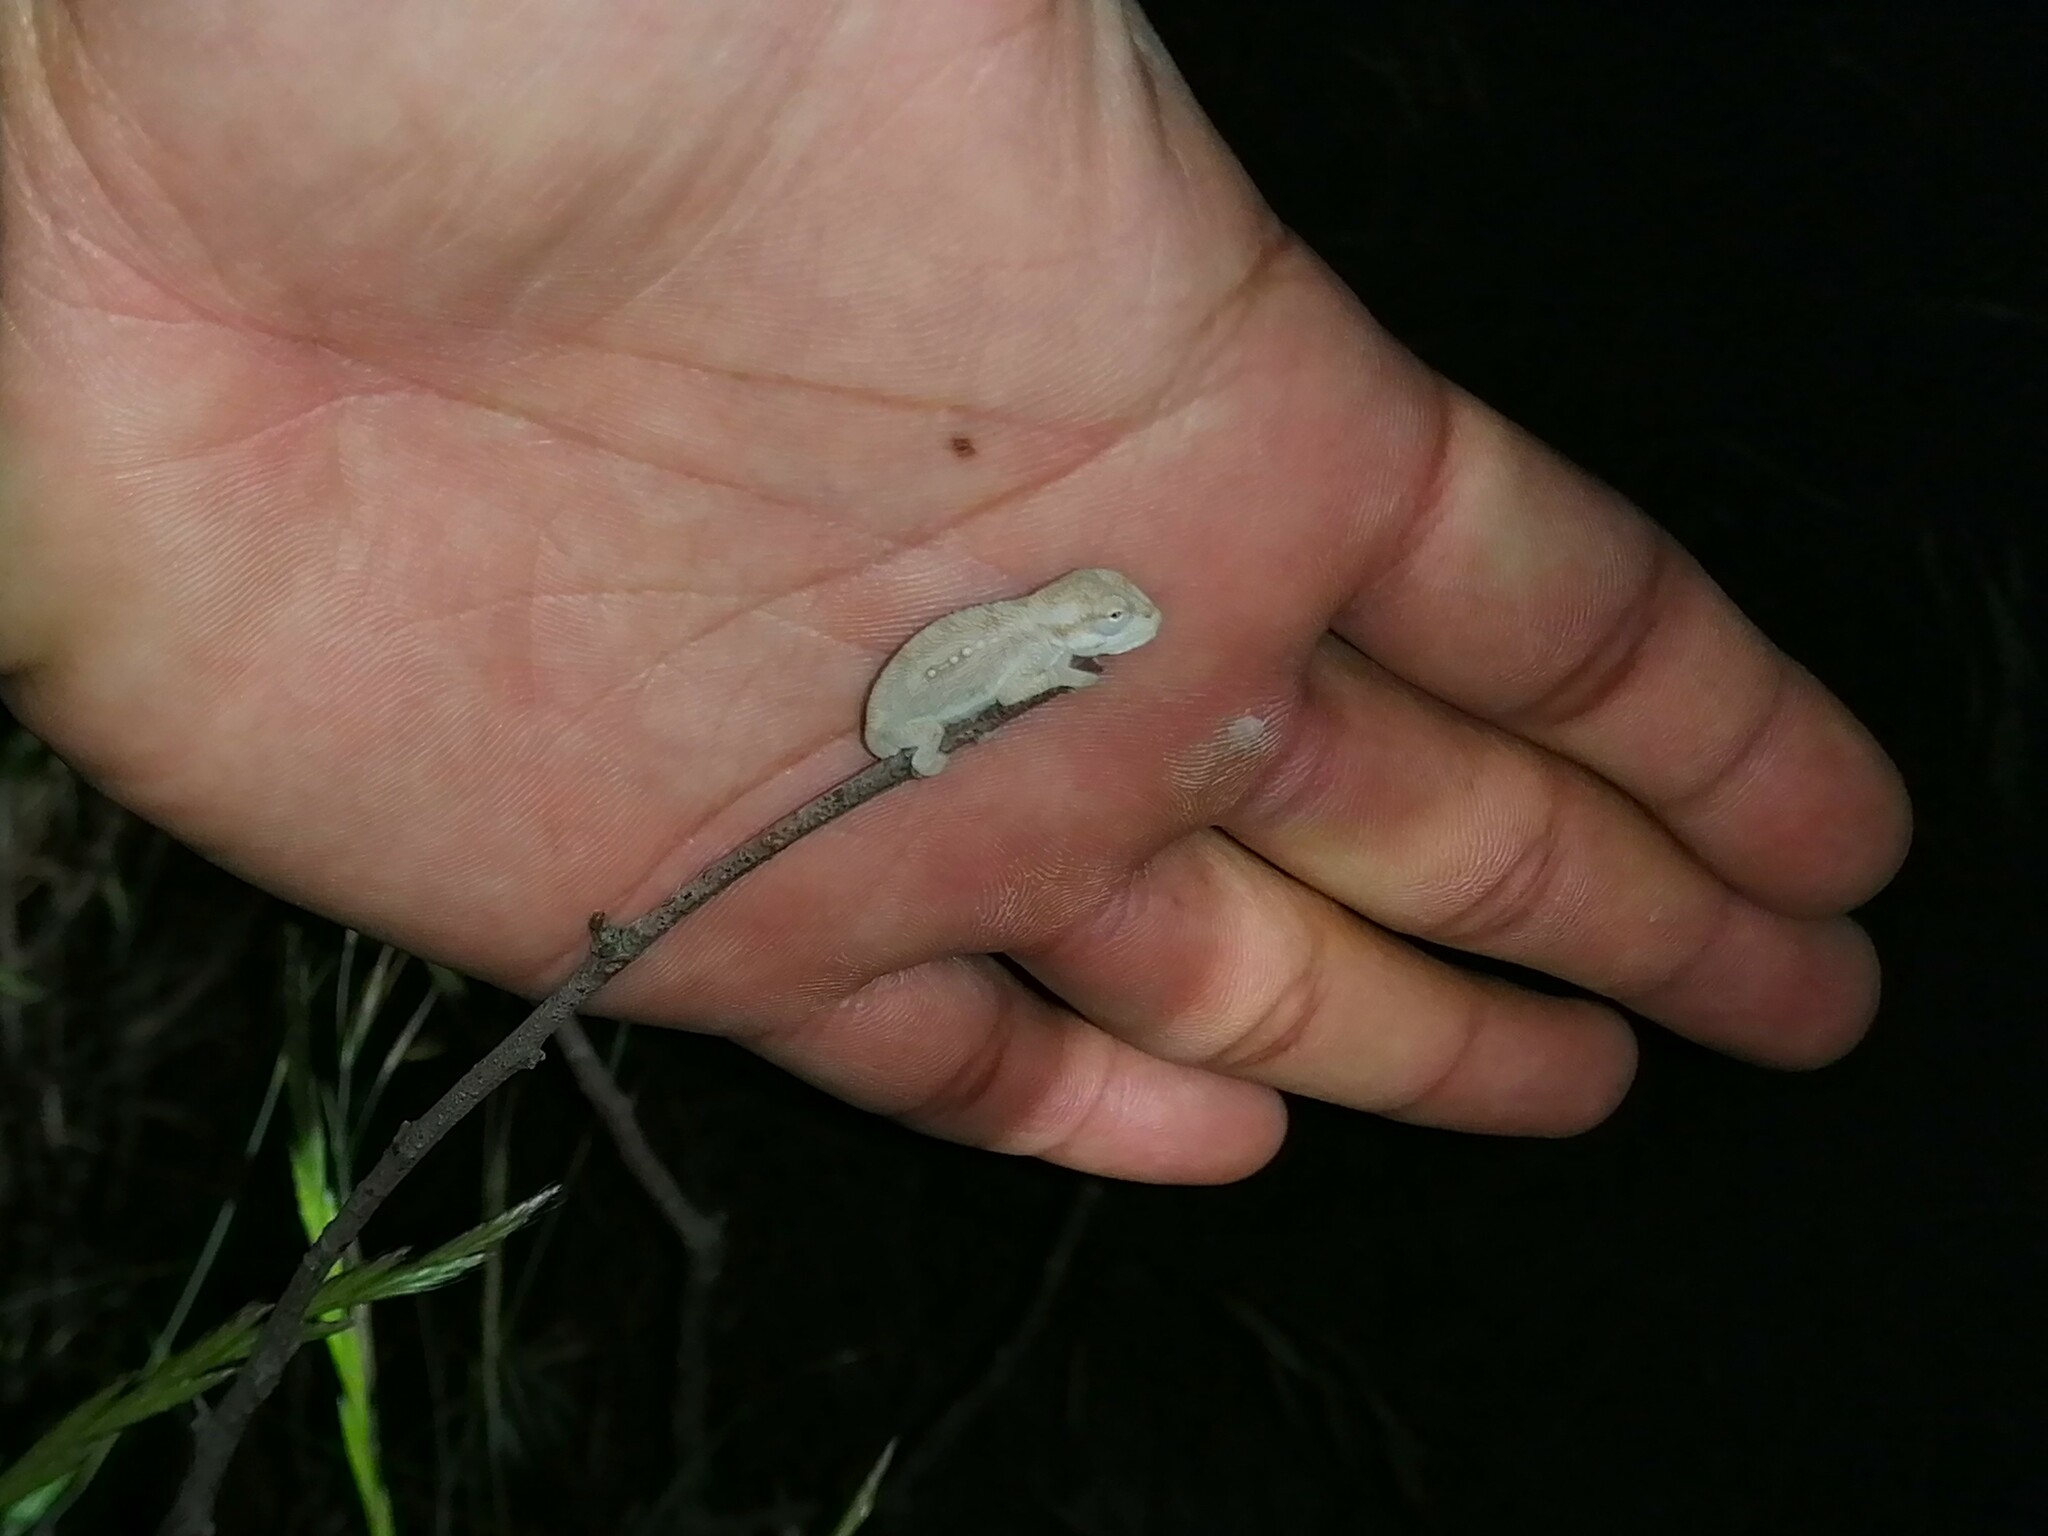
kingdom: Animalia
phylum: Chordata
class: Squamata
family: Chamaeleonidae
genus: Bradypodion
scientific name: Bradypodion pumilum
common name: Cape dwarf chameleon
